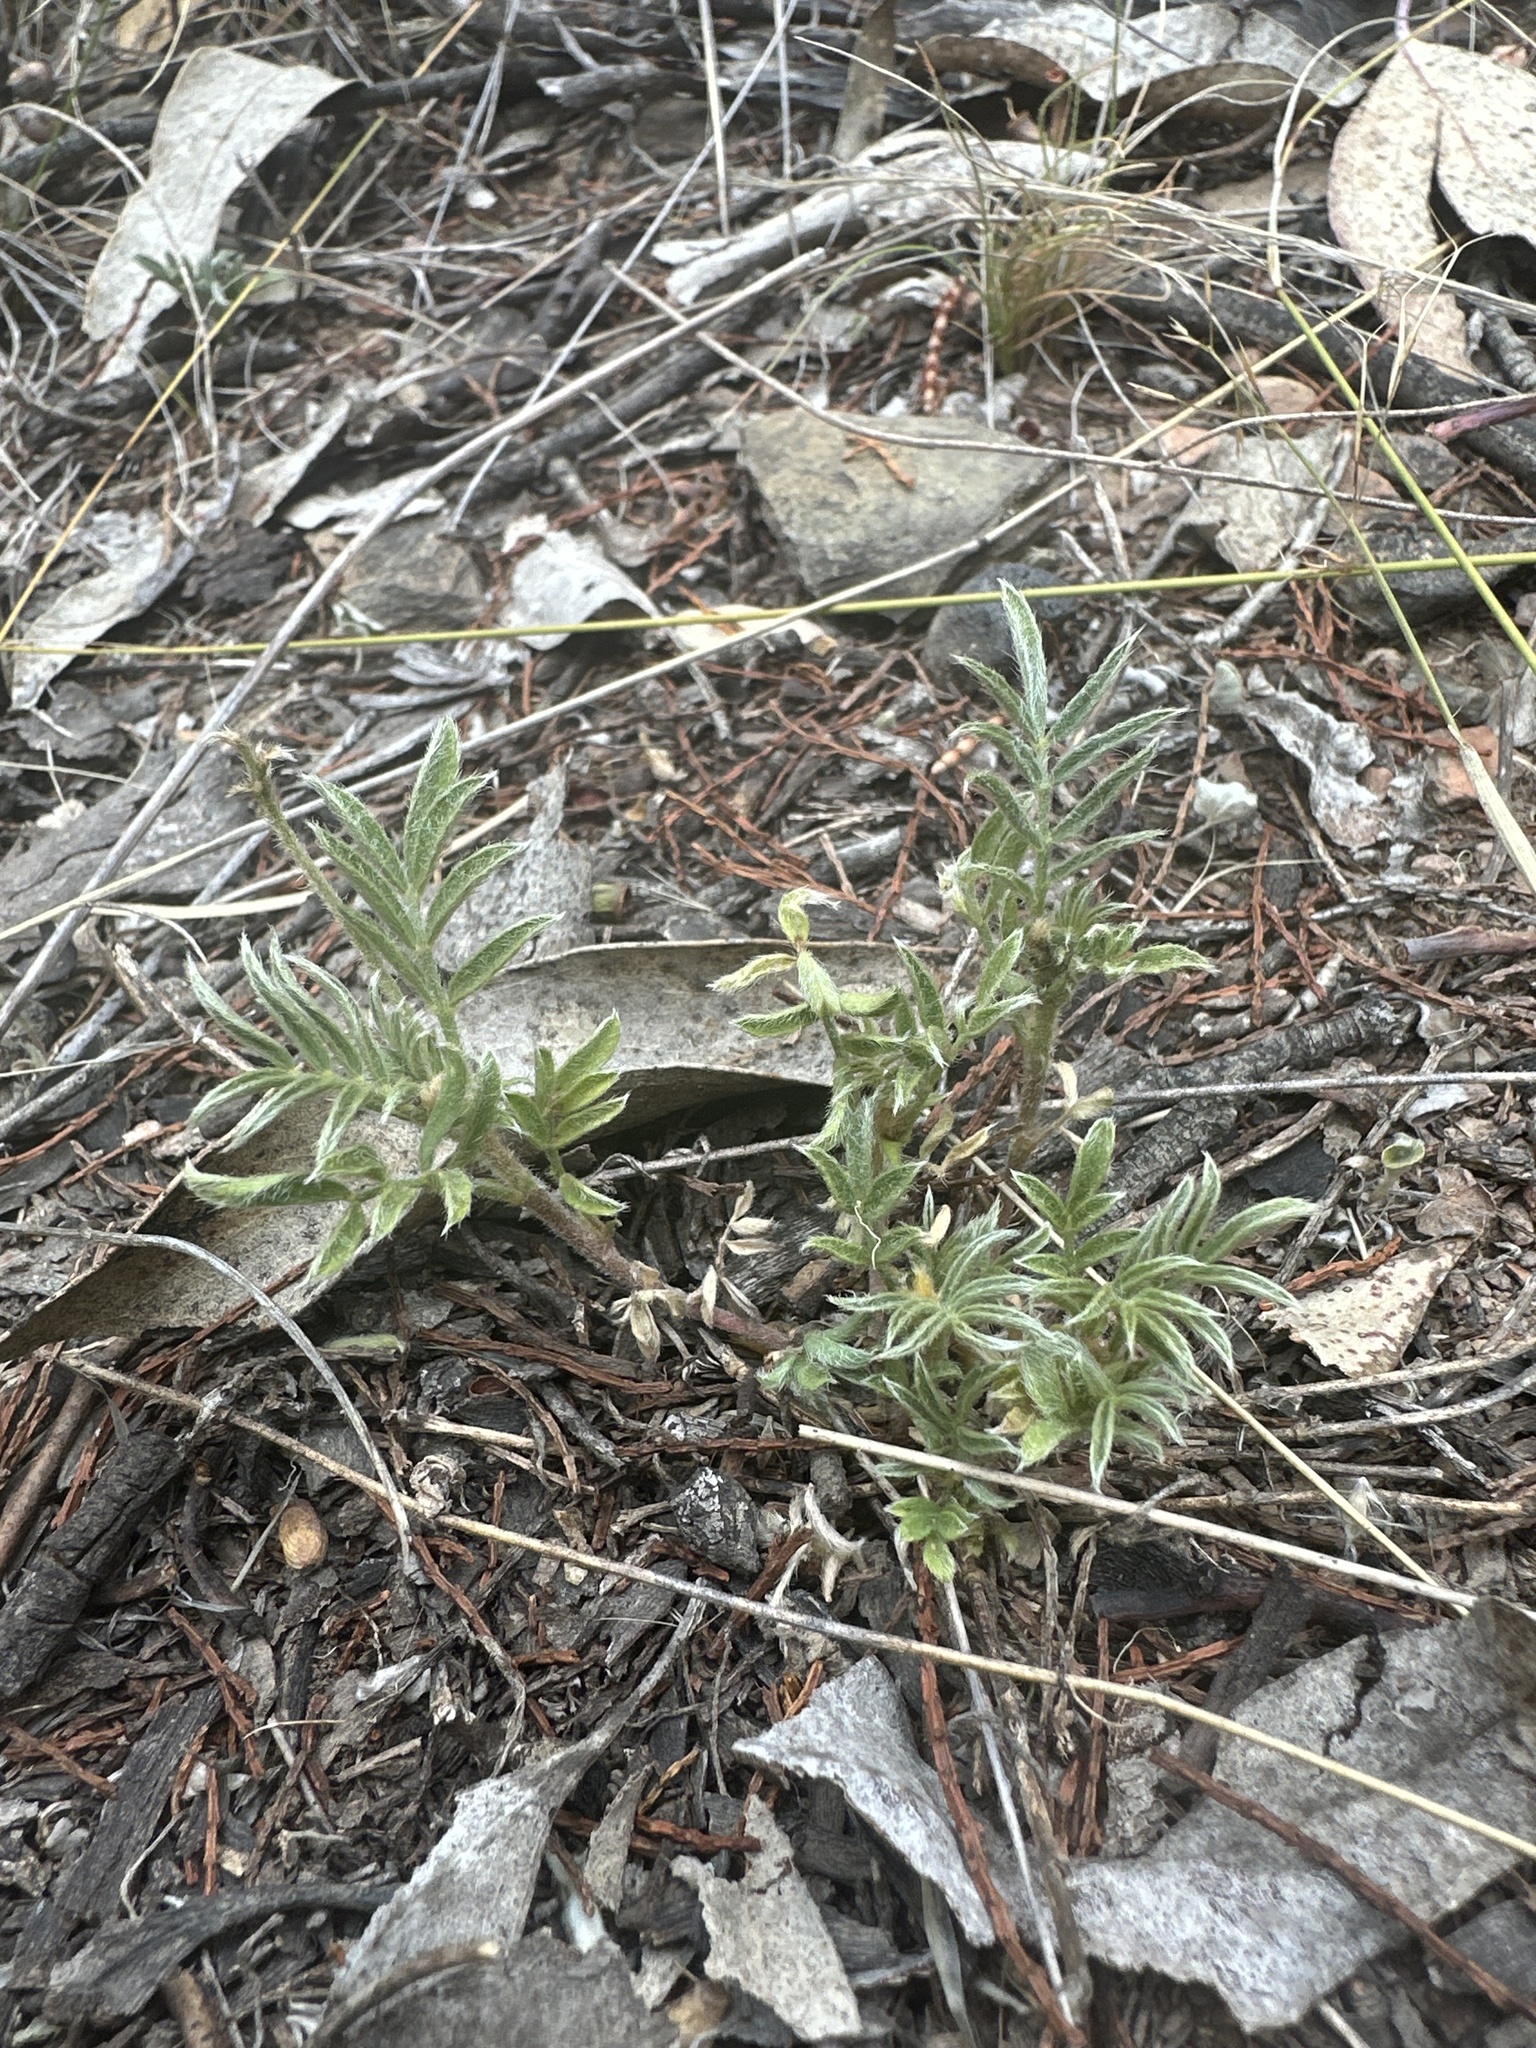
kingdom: Plantae
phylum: Tracheophyta
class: Magnoliopsida
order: Fabales
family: Fabaceae
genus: Swainsona
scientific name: Swainsona sericea
